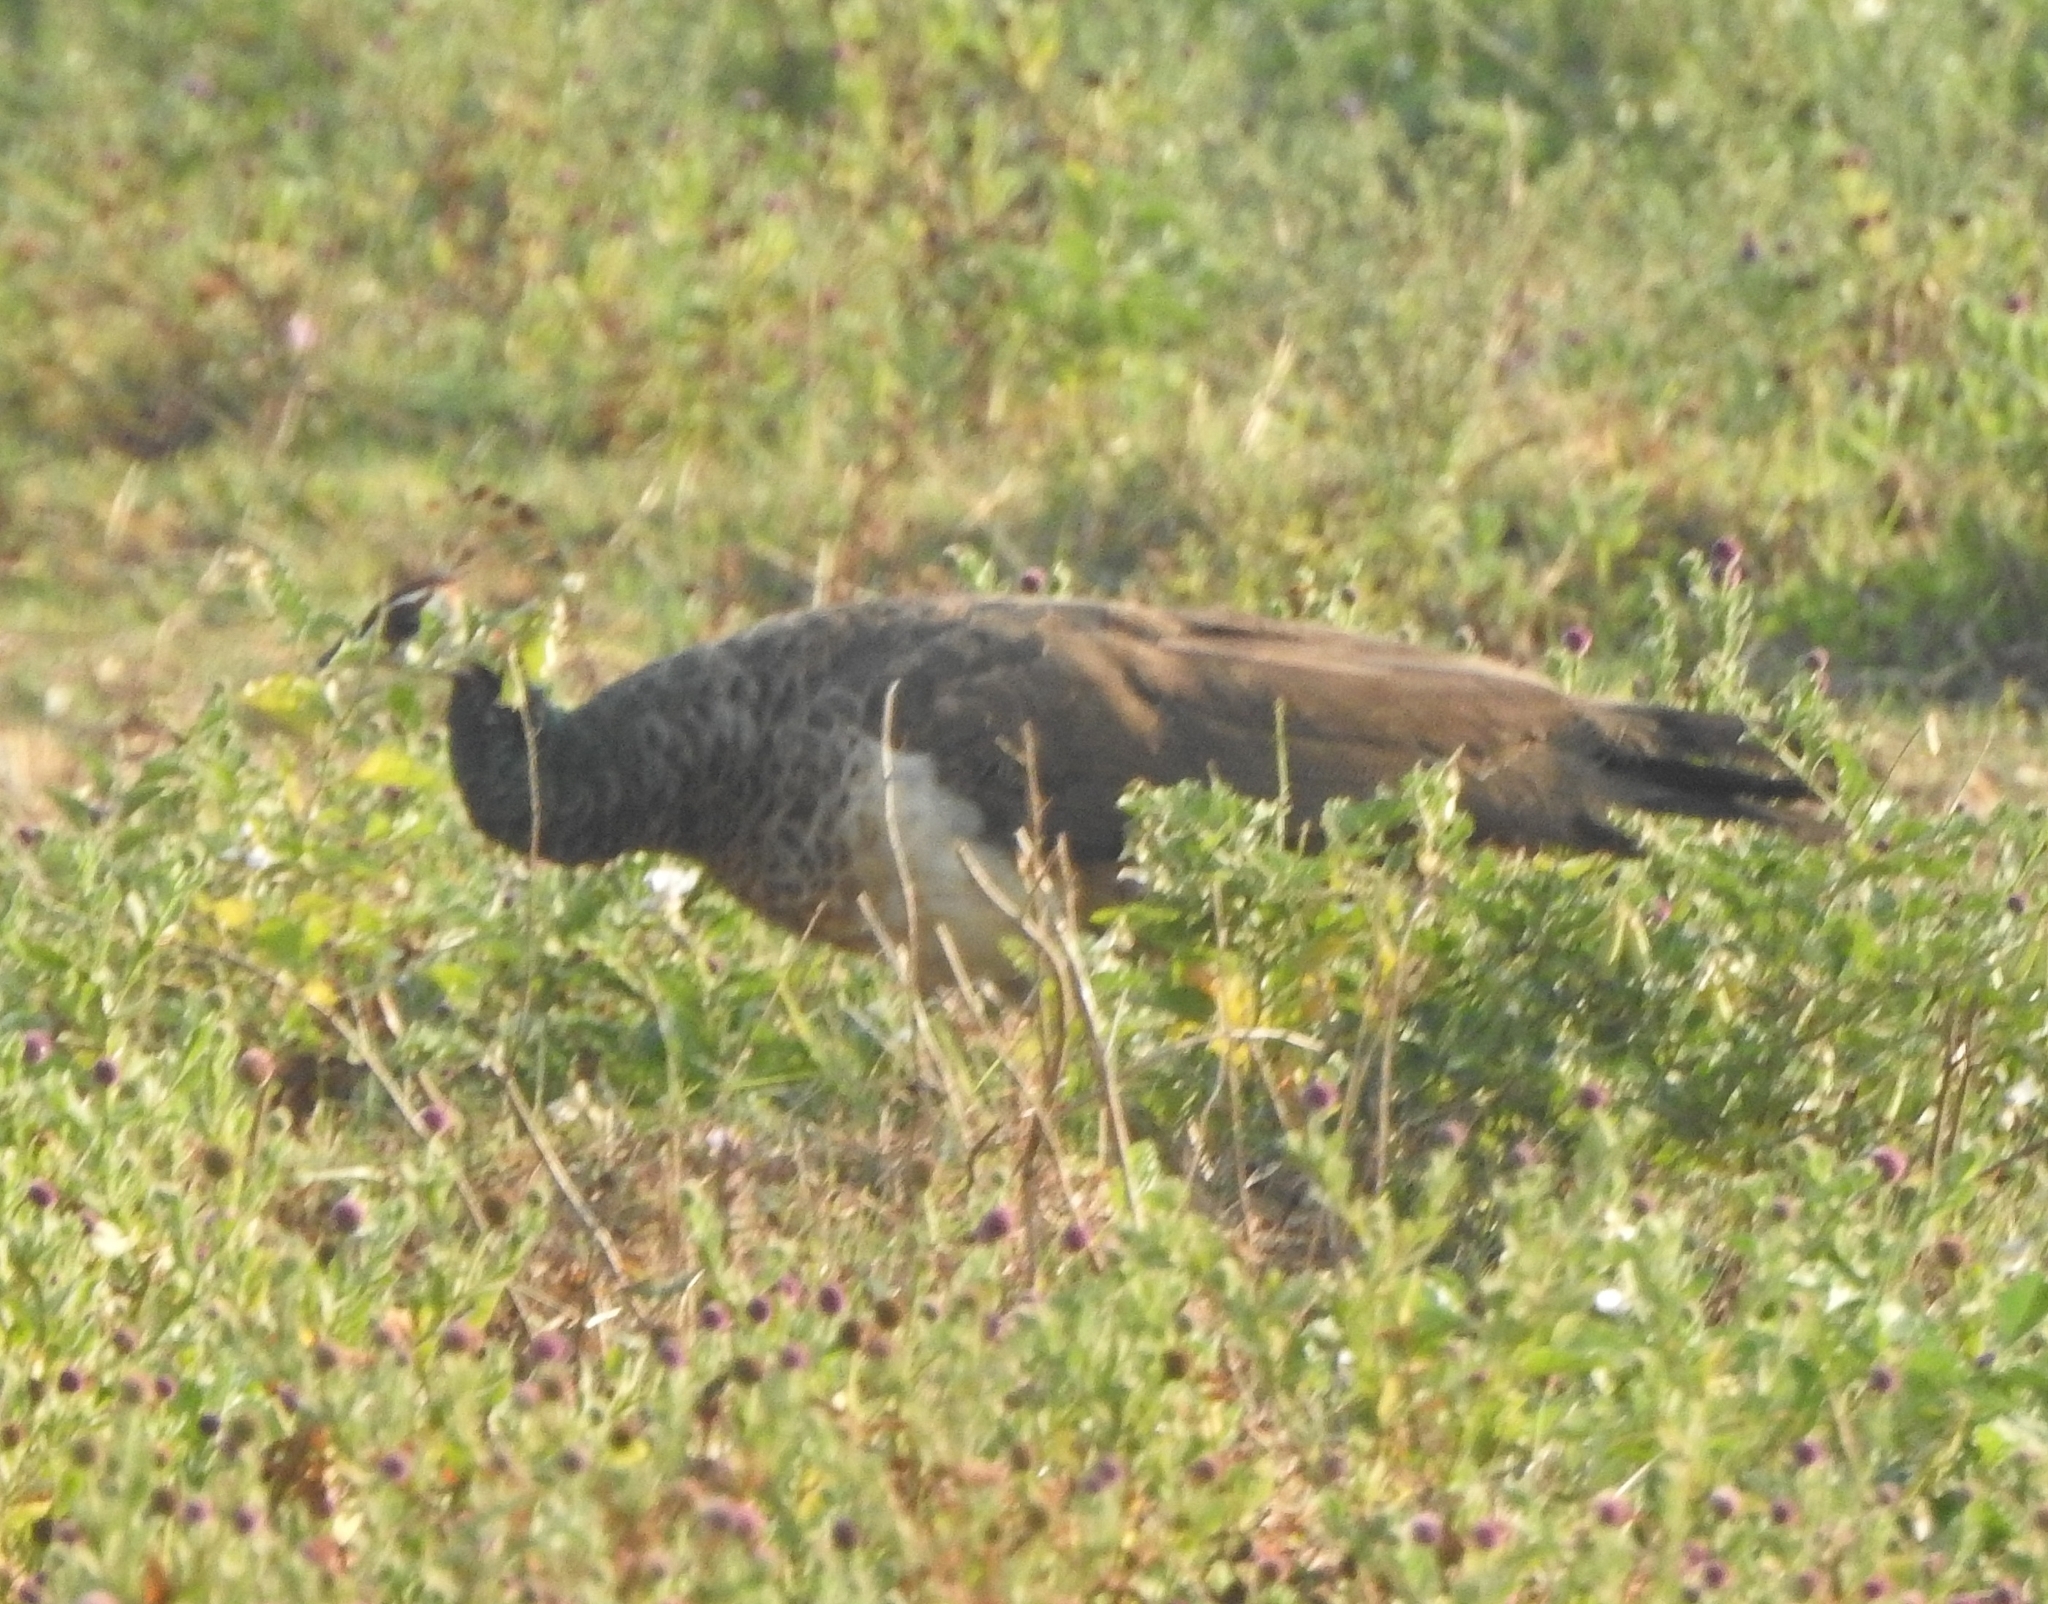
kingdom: Animalia
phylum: Chordata
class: Aves
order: Galliformes
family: Phasianidae
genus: Pavo
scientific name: Pavo cristatus
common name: Indian peafowl
